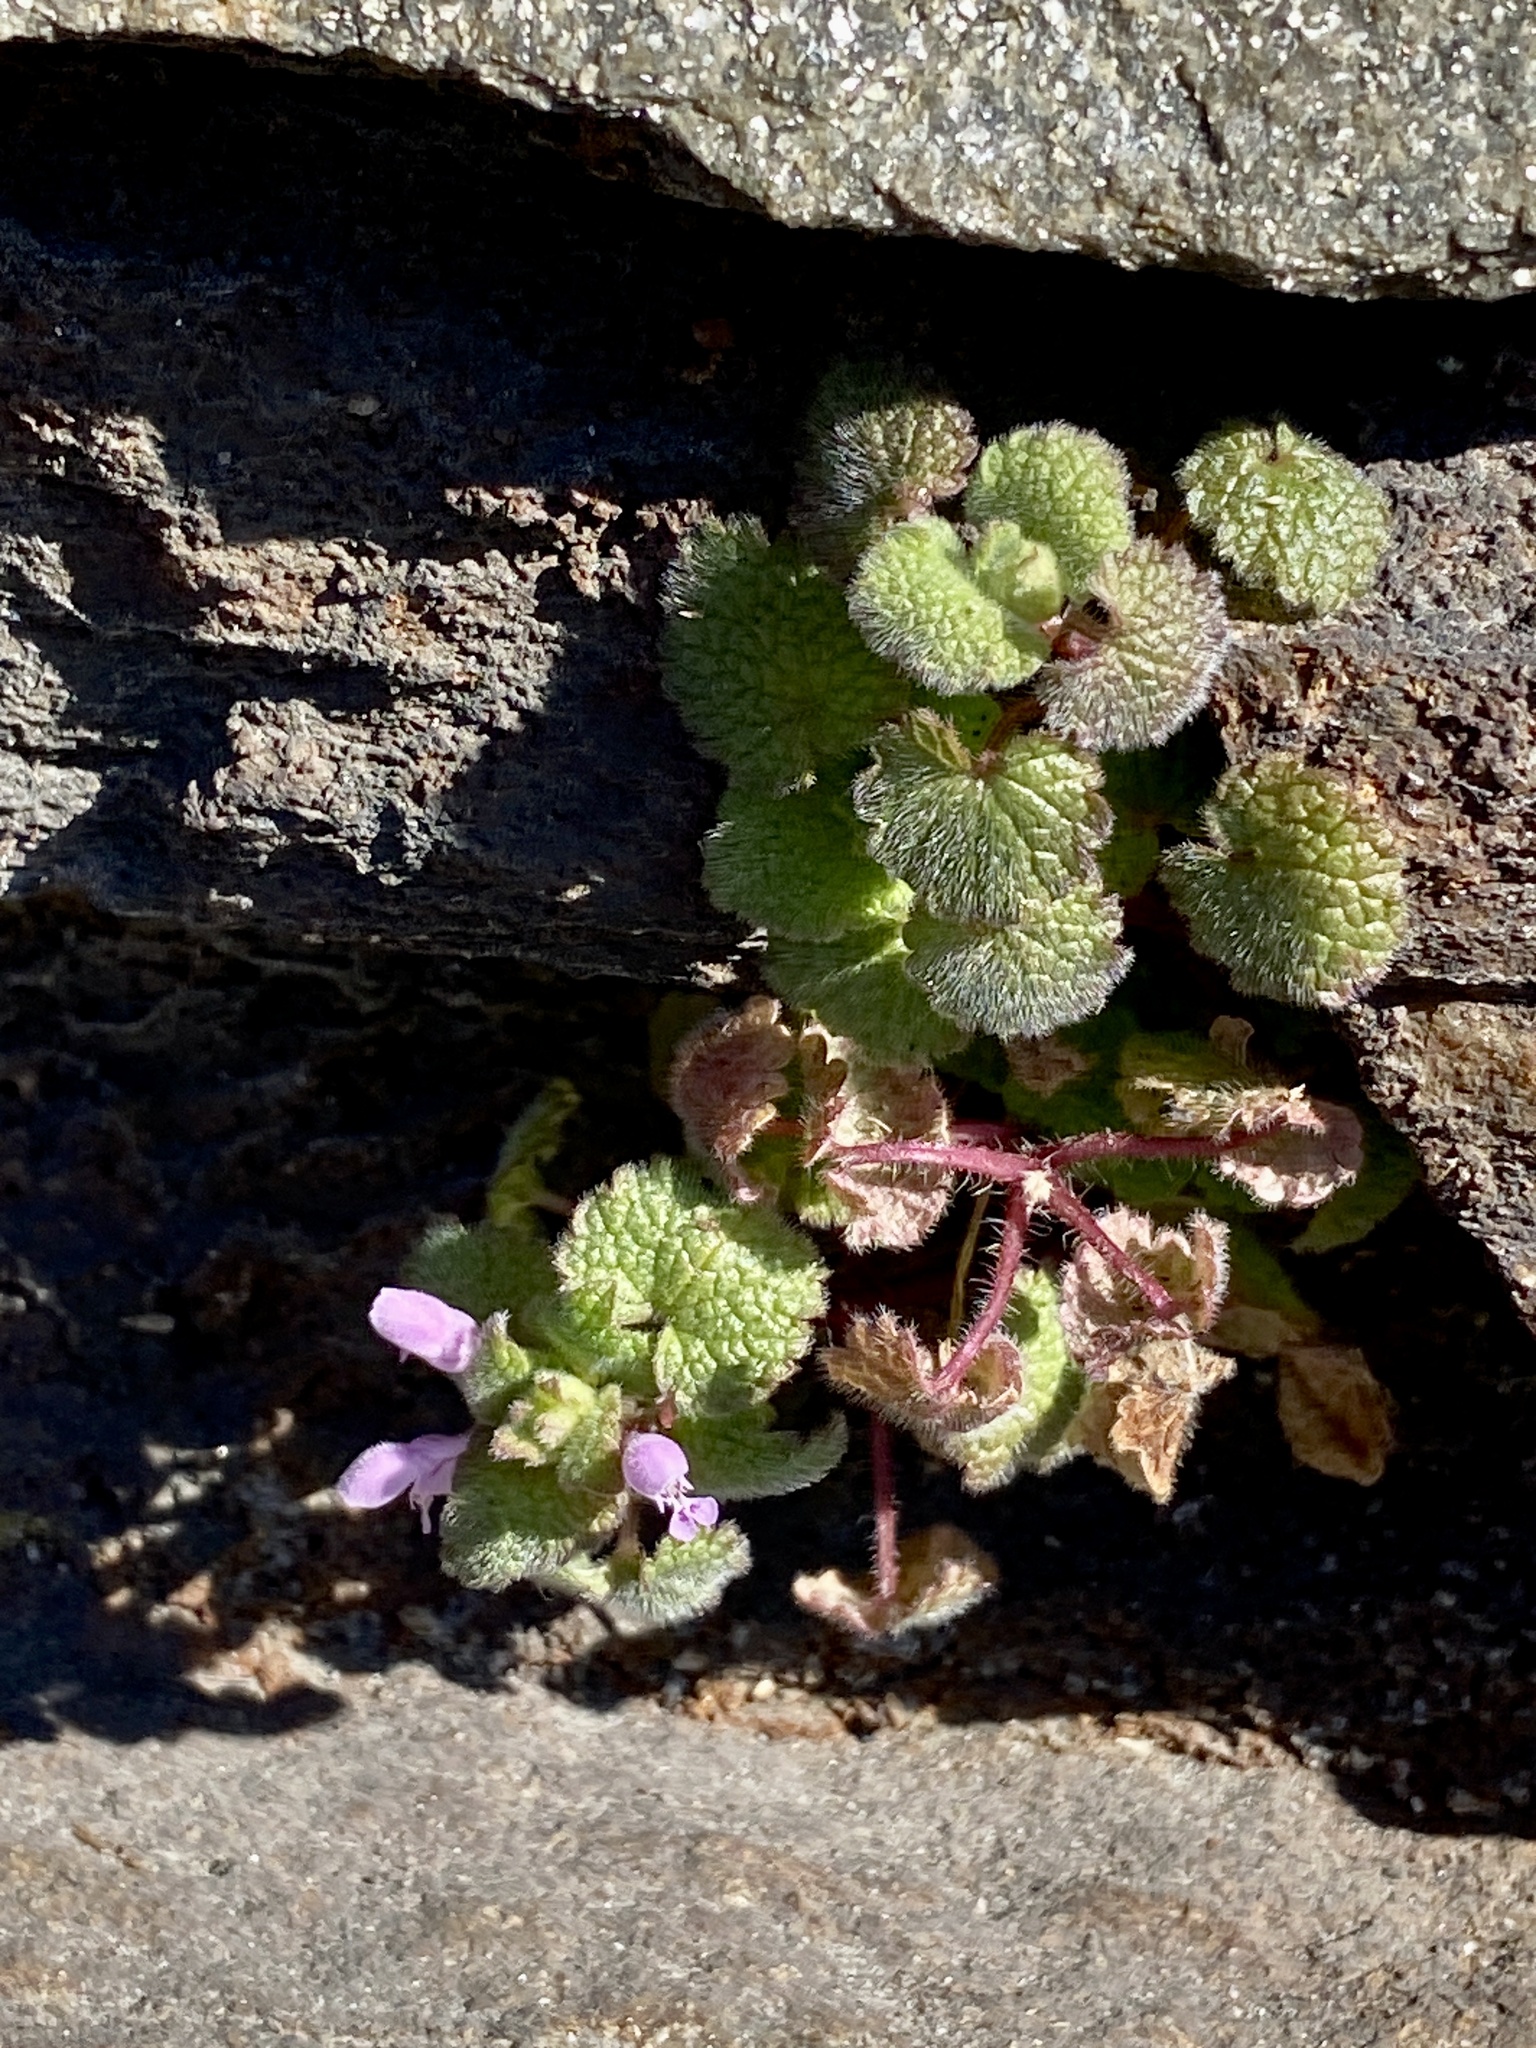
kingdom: Plantae
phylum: Tracheophyta
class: Magnoliopsida
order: Lamiales
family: Lamiaceae
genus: Lamium
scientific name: Lamium purpureum
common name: Red dead-nettle
